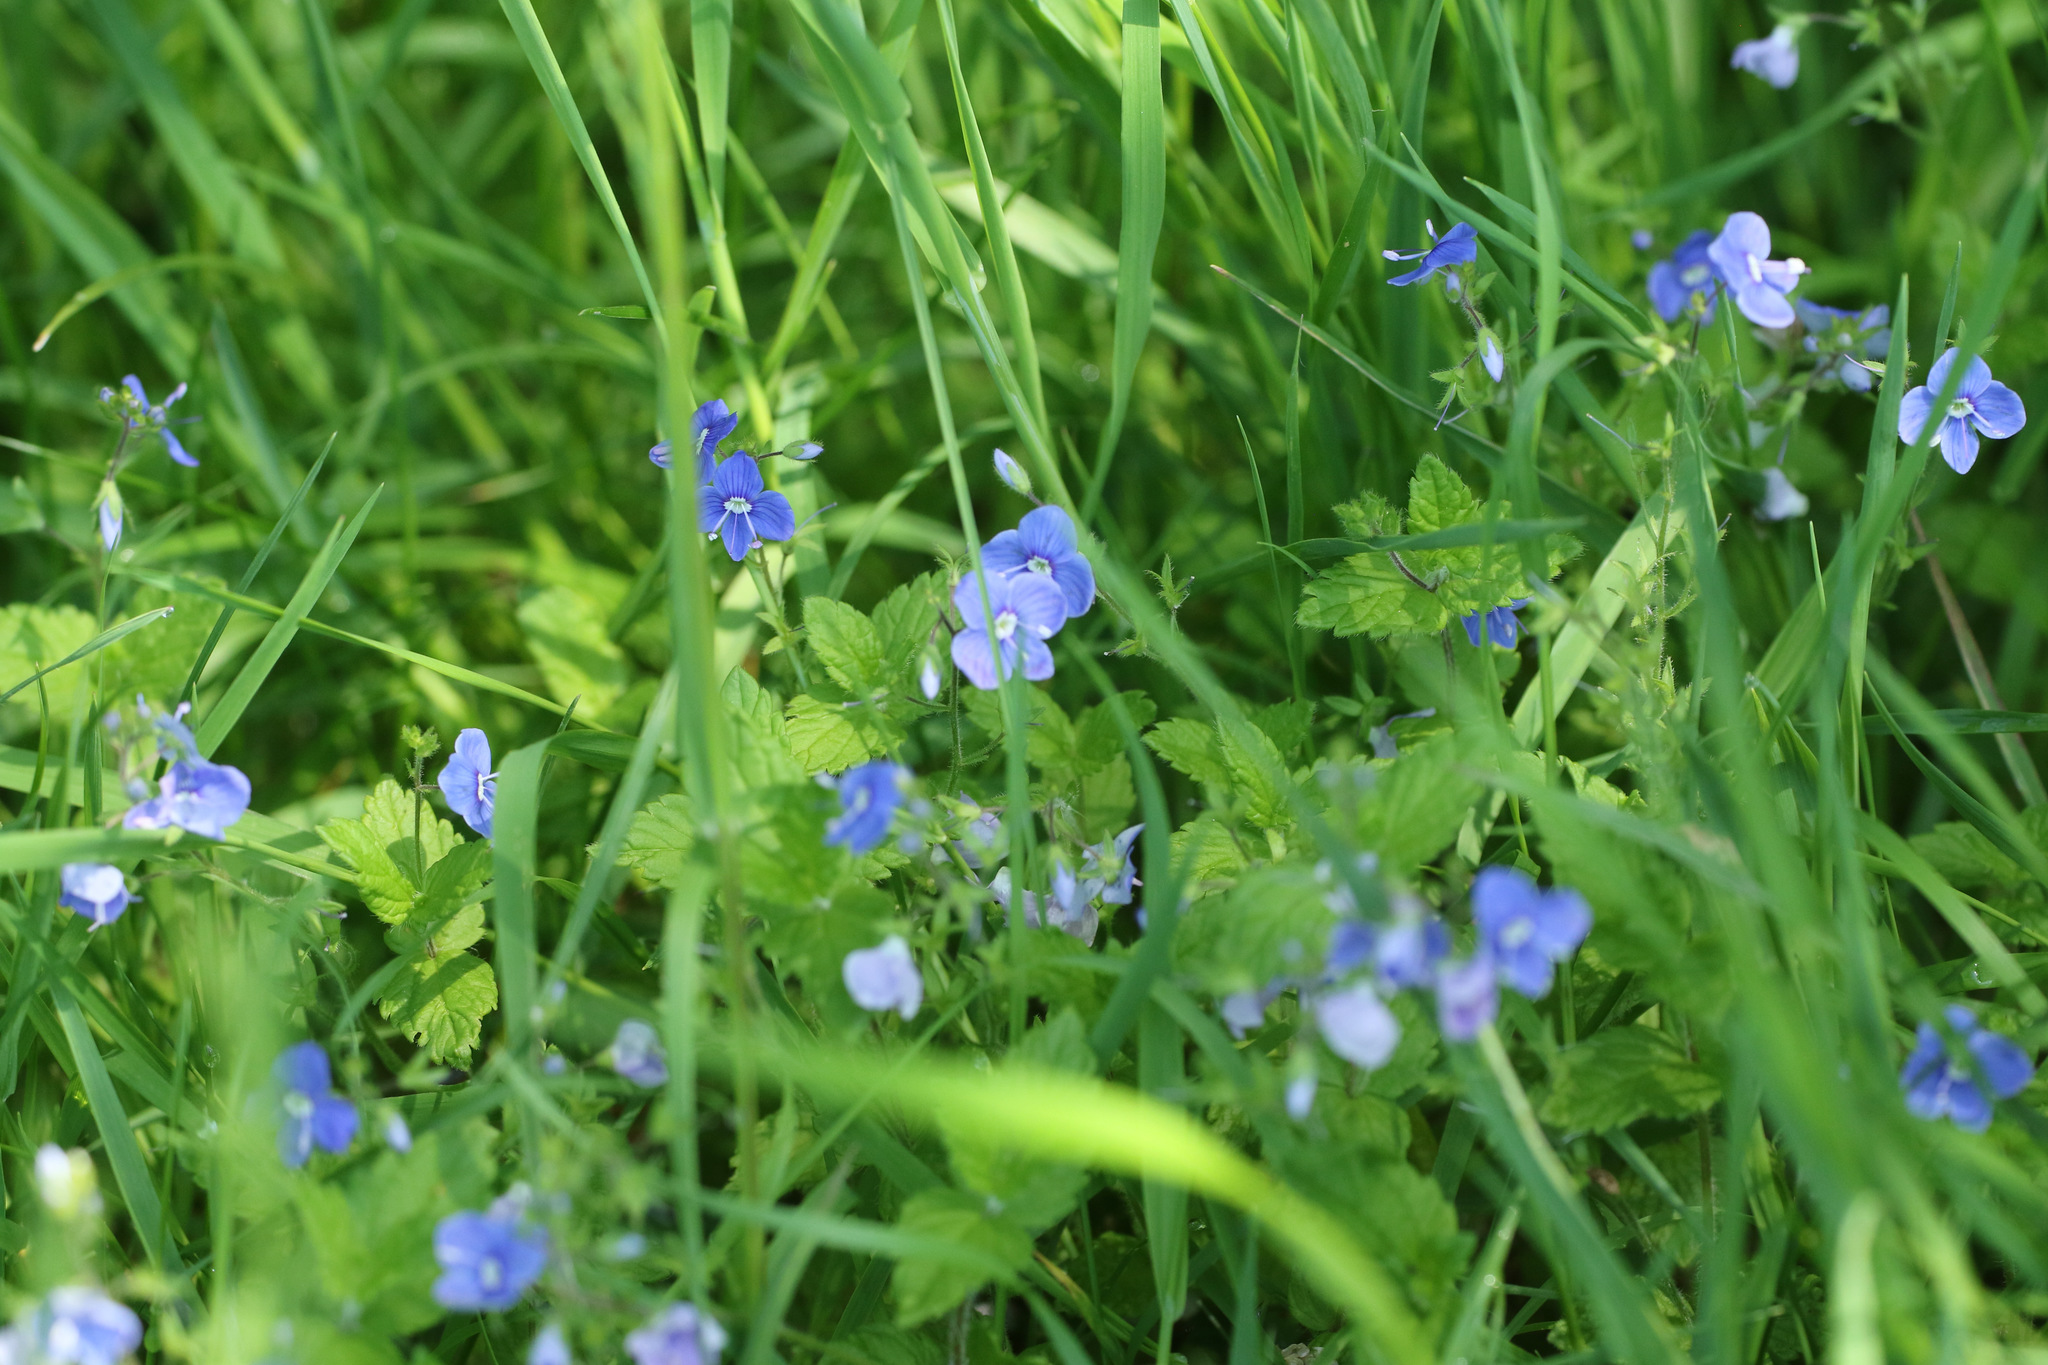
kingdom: Plantae
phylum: Tracheophyta
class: Magnoliopsida
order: Lamiales
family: Plantaginaceae
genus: Veronica
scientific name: Veronica chamaedrys
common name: Germander speedwell
